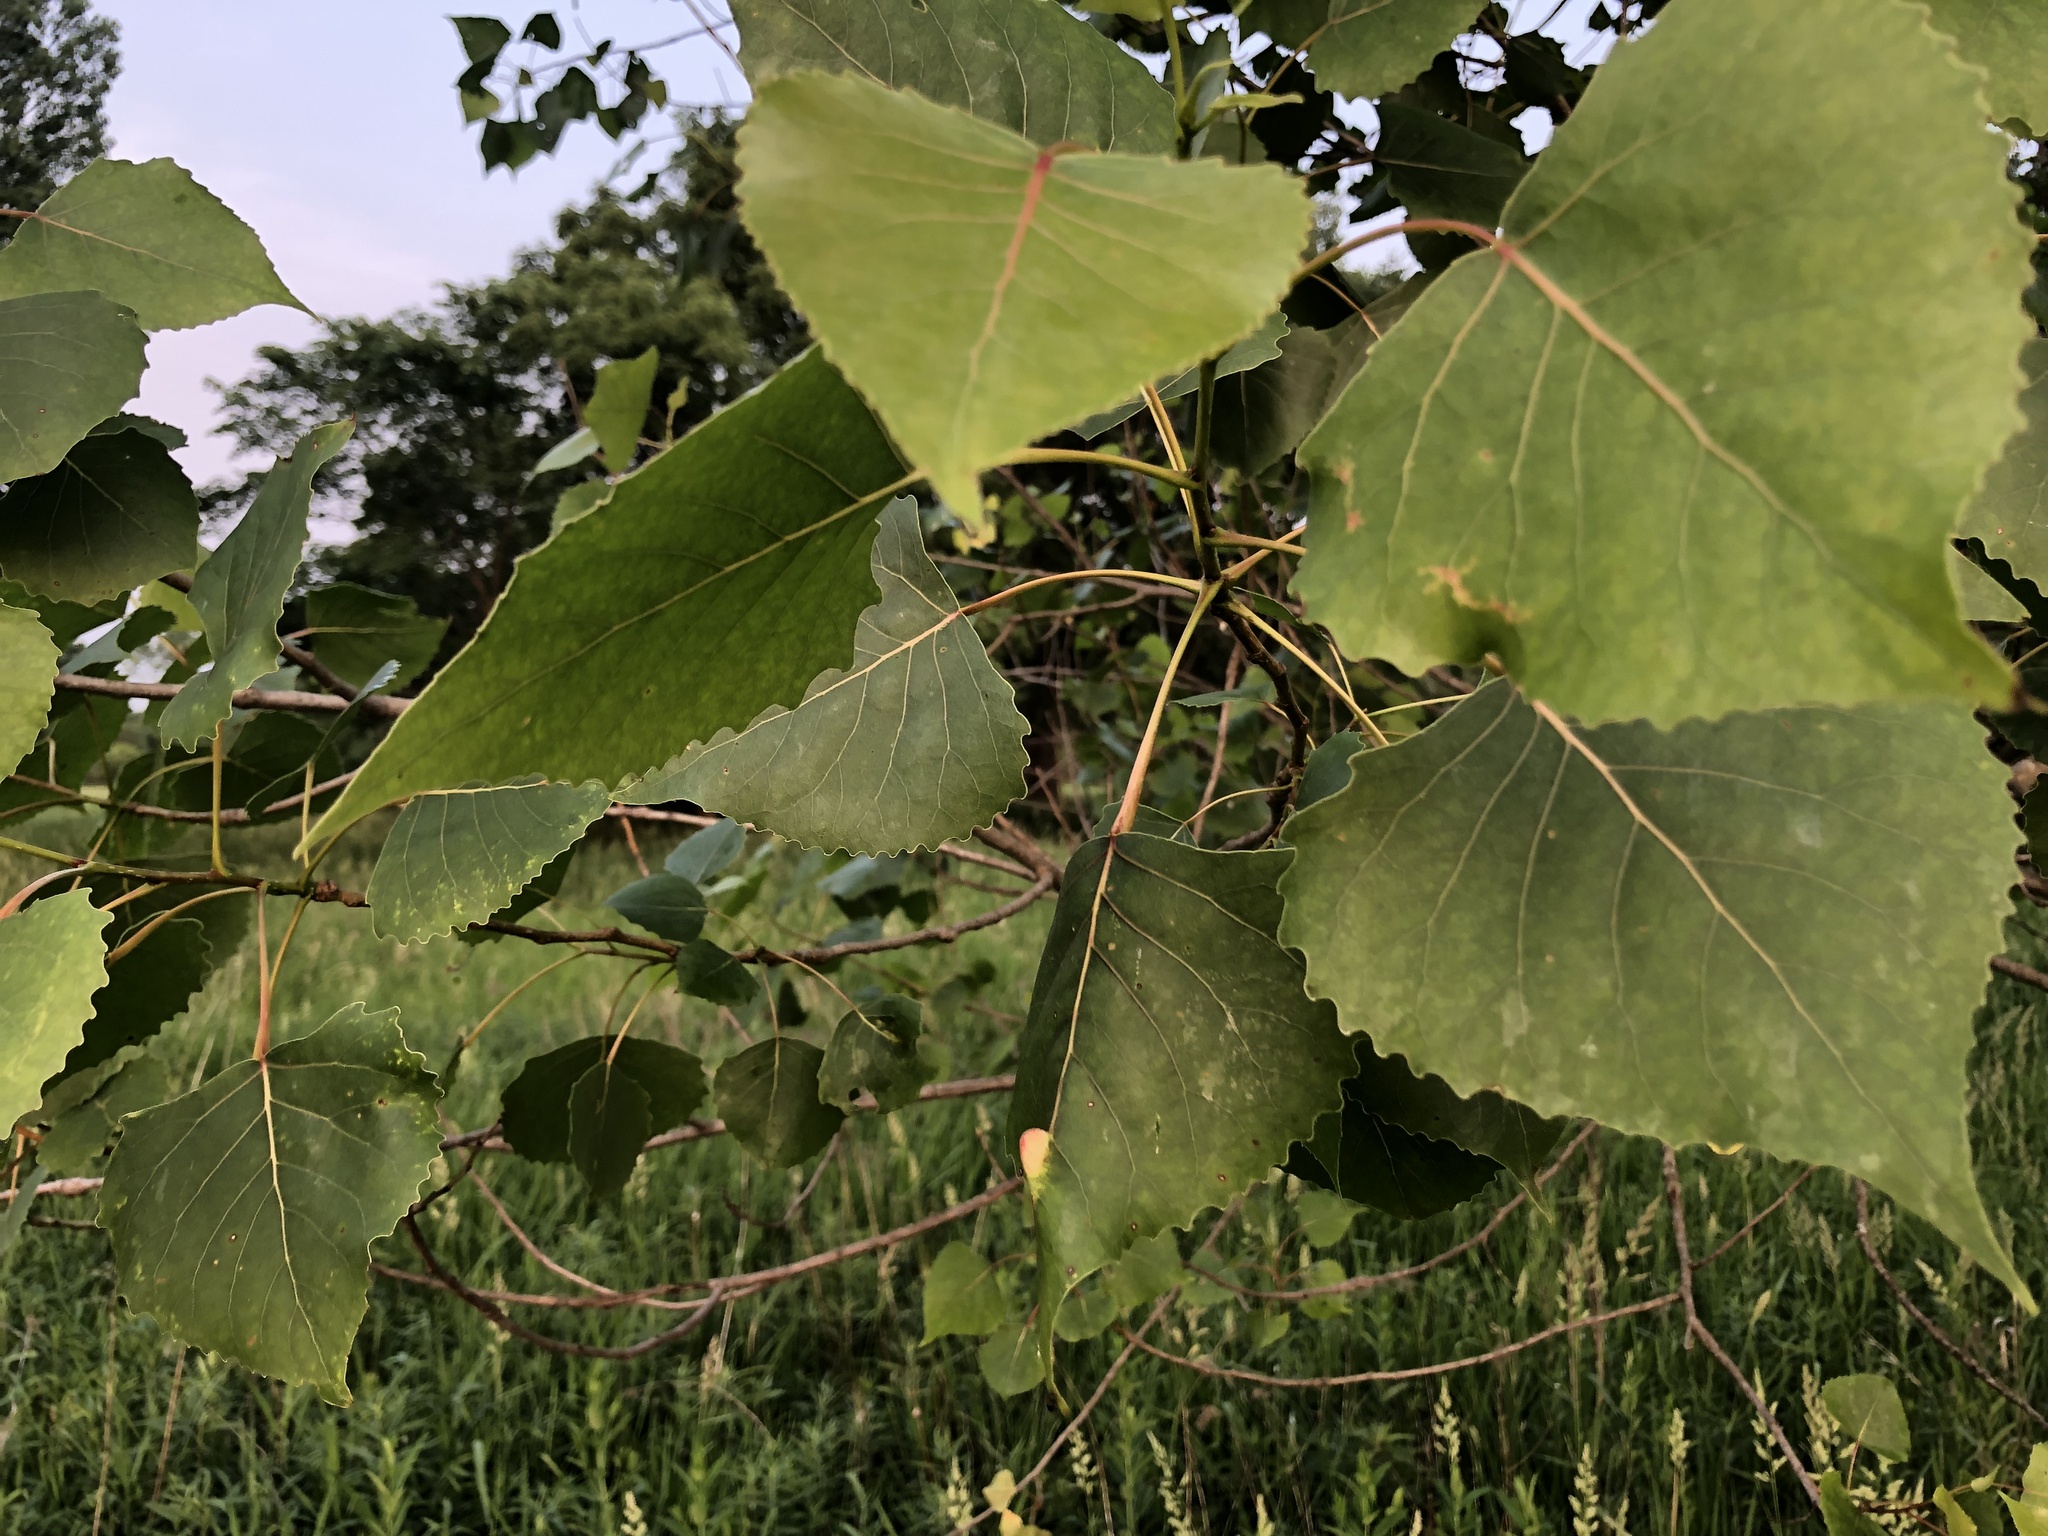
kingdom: Plantae
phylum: Tracheophyta
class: Magnoliopsida
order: Malpighiales
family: Salicaceae
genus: Populus
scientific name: Populus deltoides
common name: Eastern cottonwood
